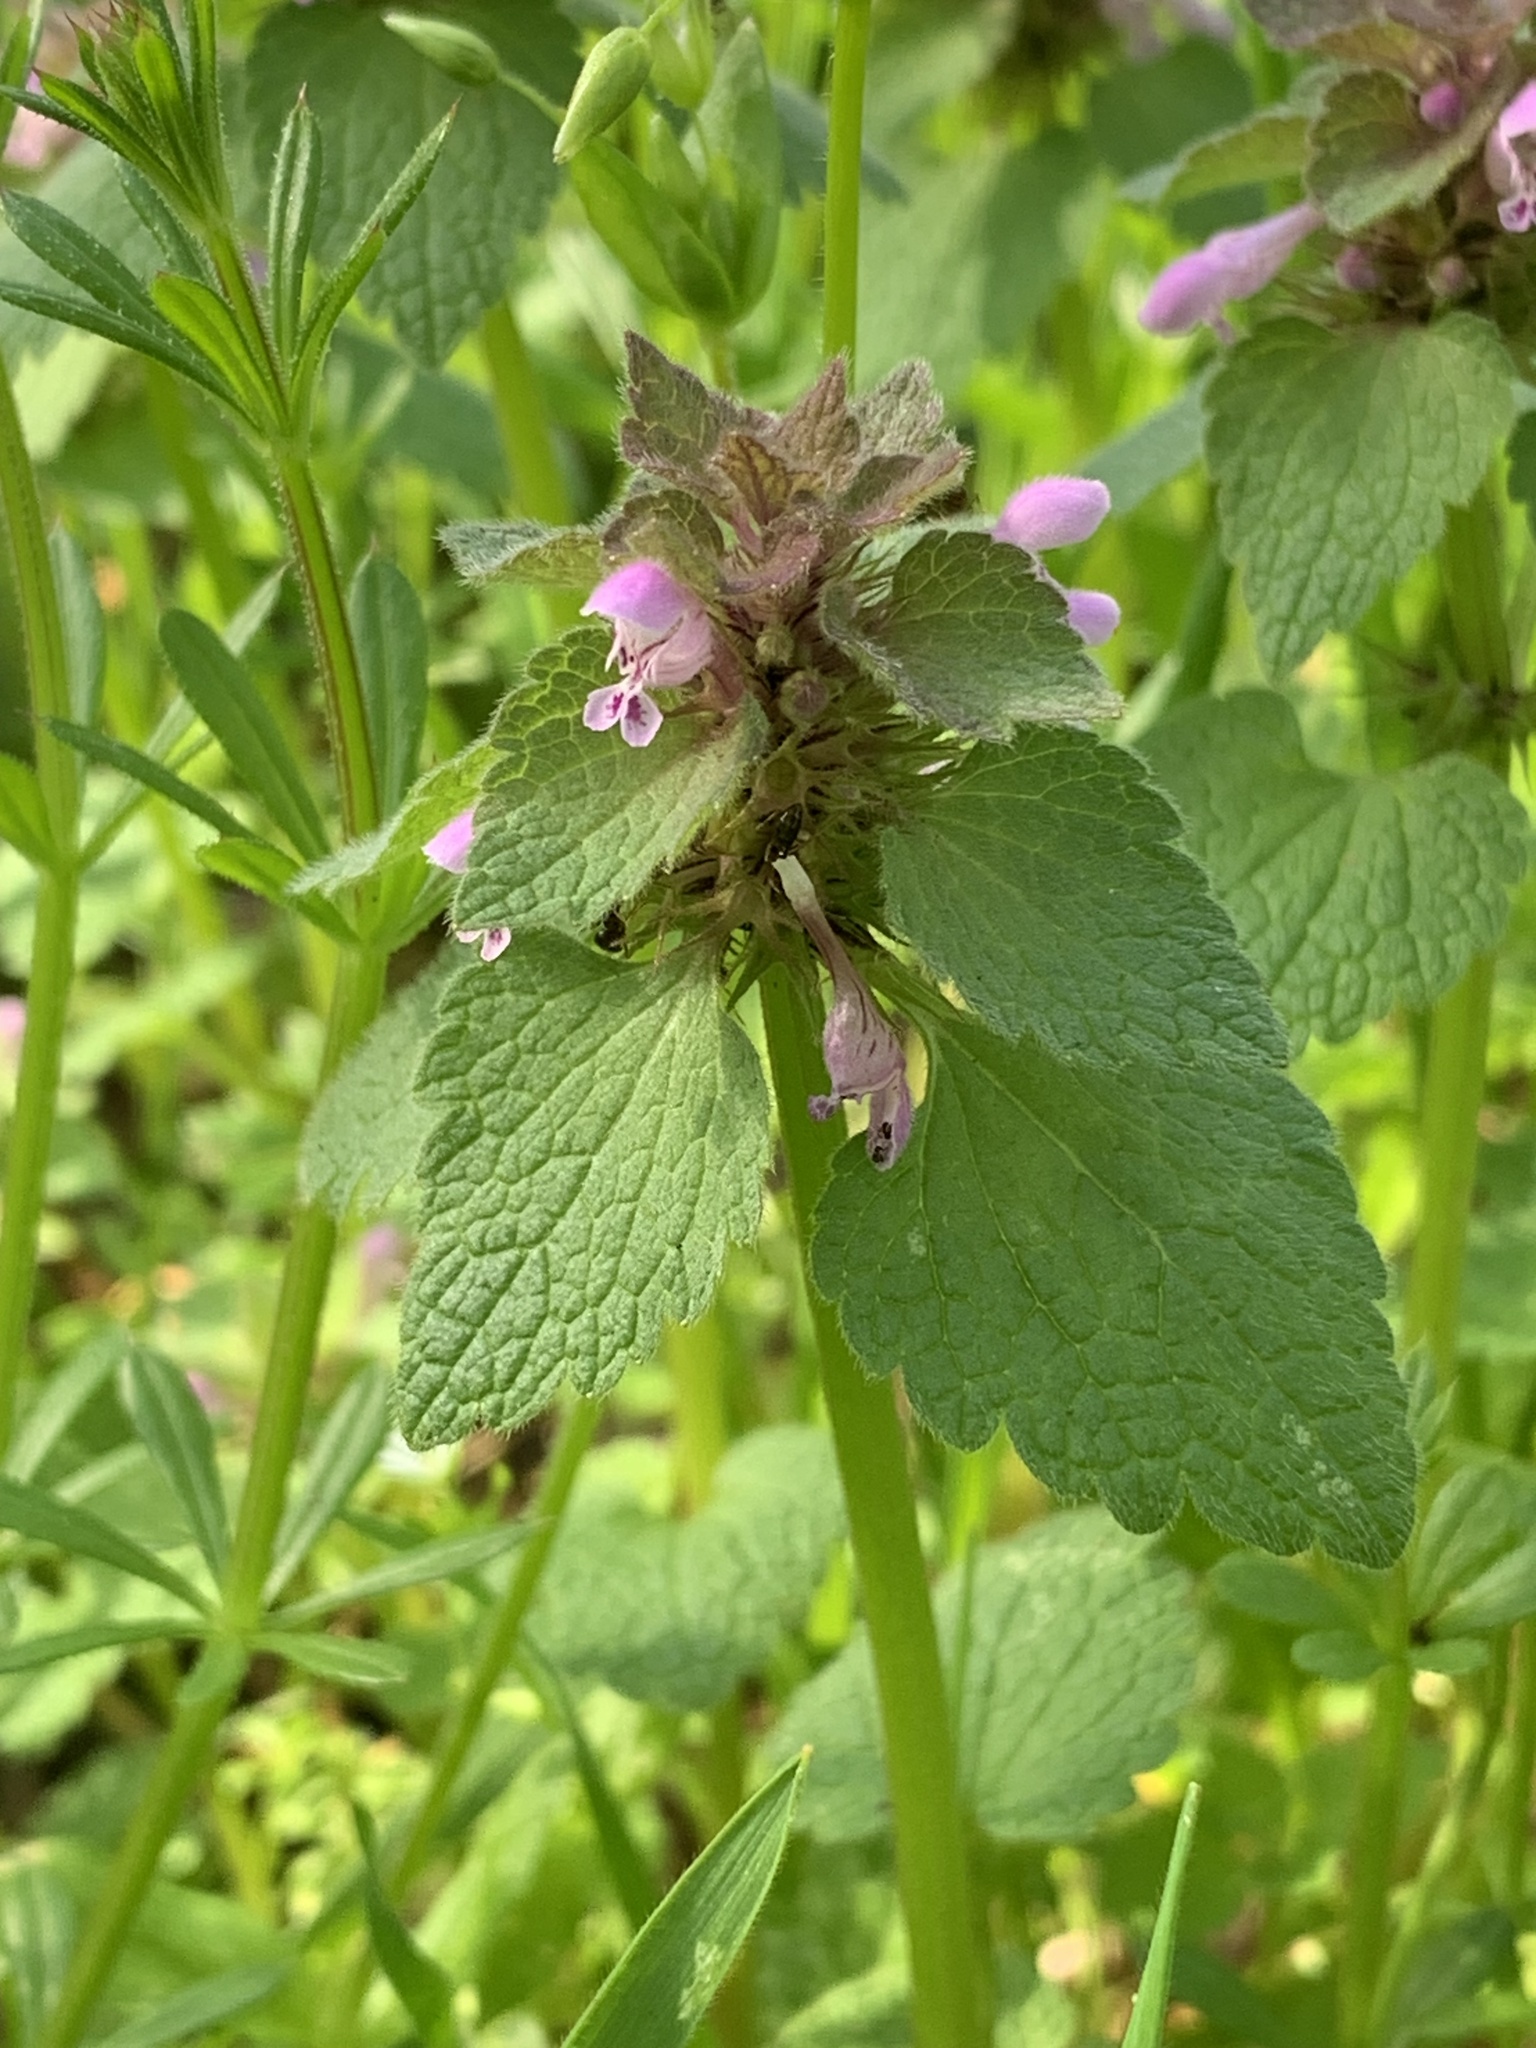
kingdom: Plantae
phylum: Tracheophyta
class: Magnoliopsida
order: Lamiales
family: Lamiaceae
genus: Lamium
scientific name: Lamium purpureum
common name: Red dead-nettle
